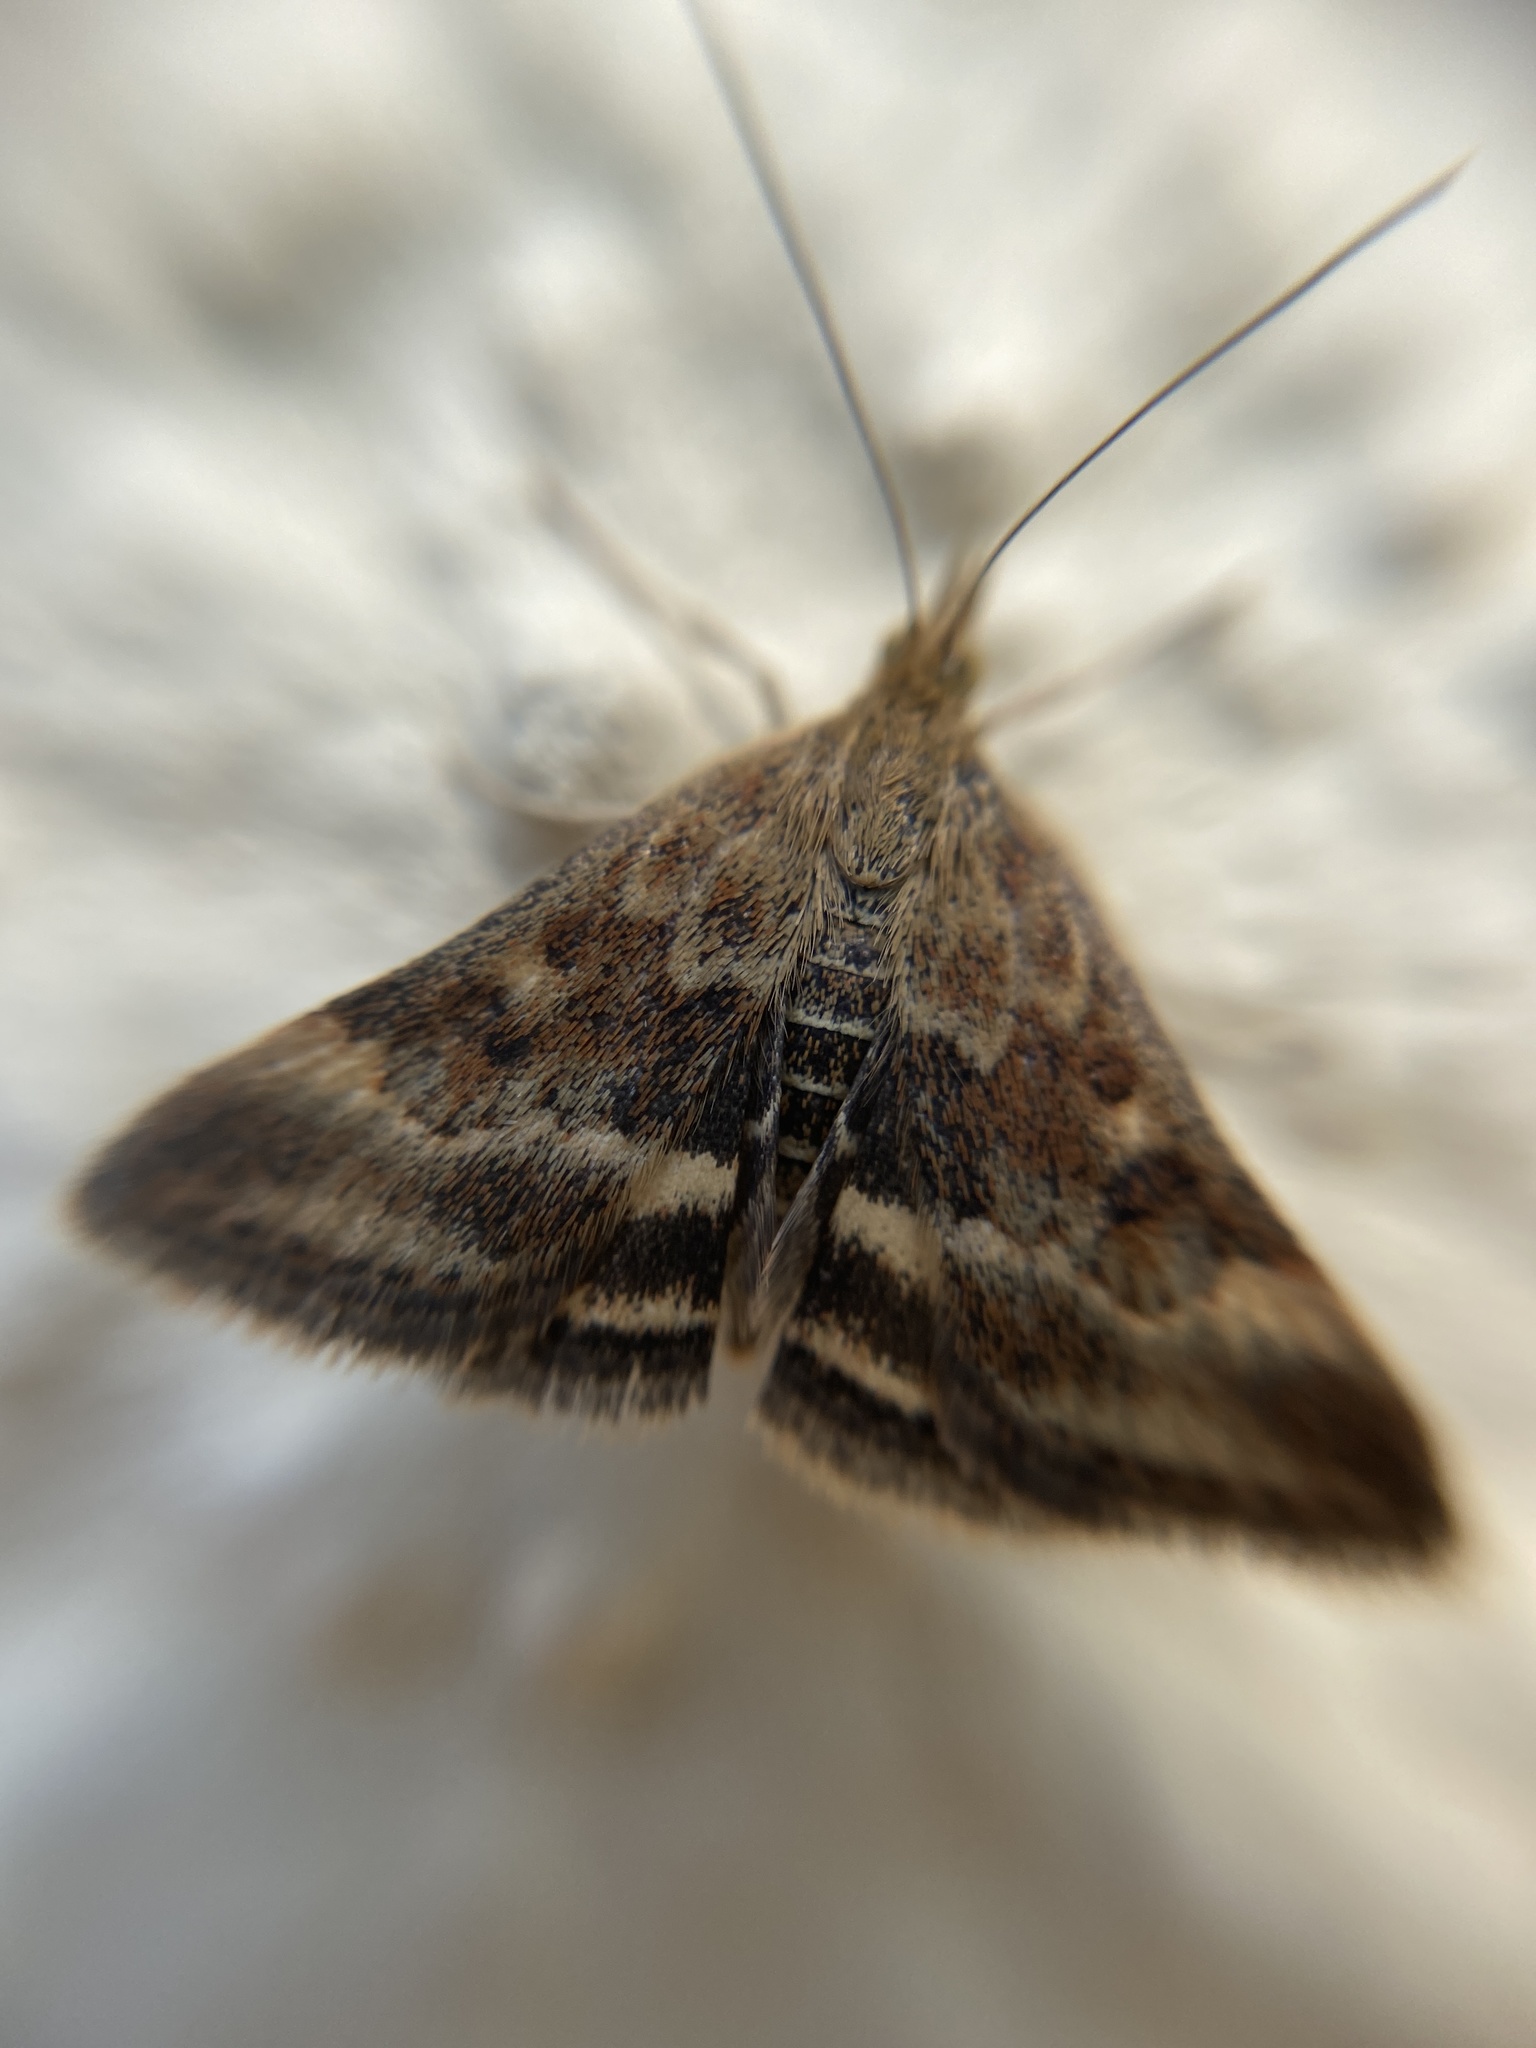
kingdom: Animalia
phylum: Arthropoda
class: Insecta
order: Lepidoptera
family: Crambidae
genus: Pyrausta
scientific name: Pyrausta despicata
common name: Straw-barred pearl
